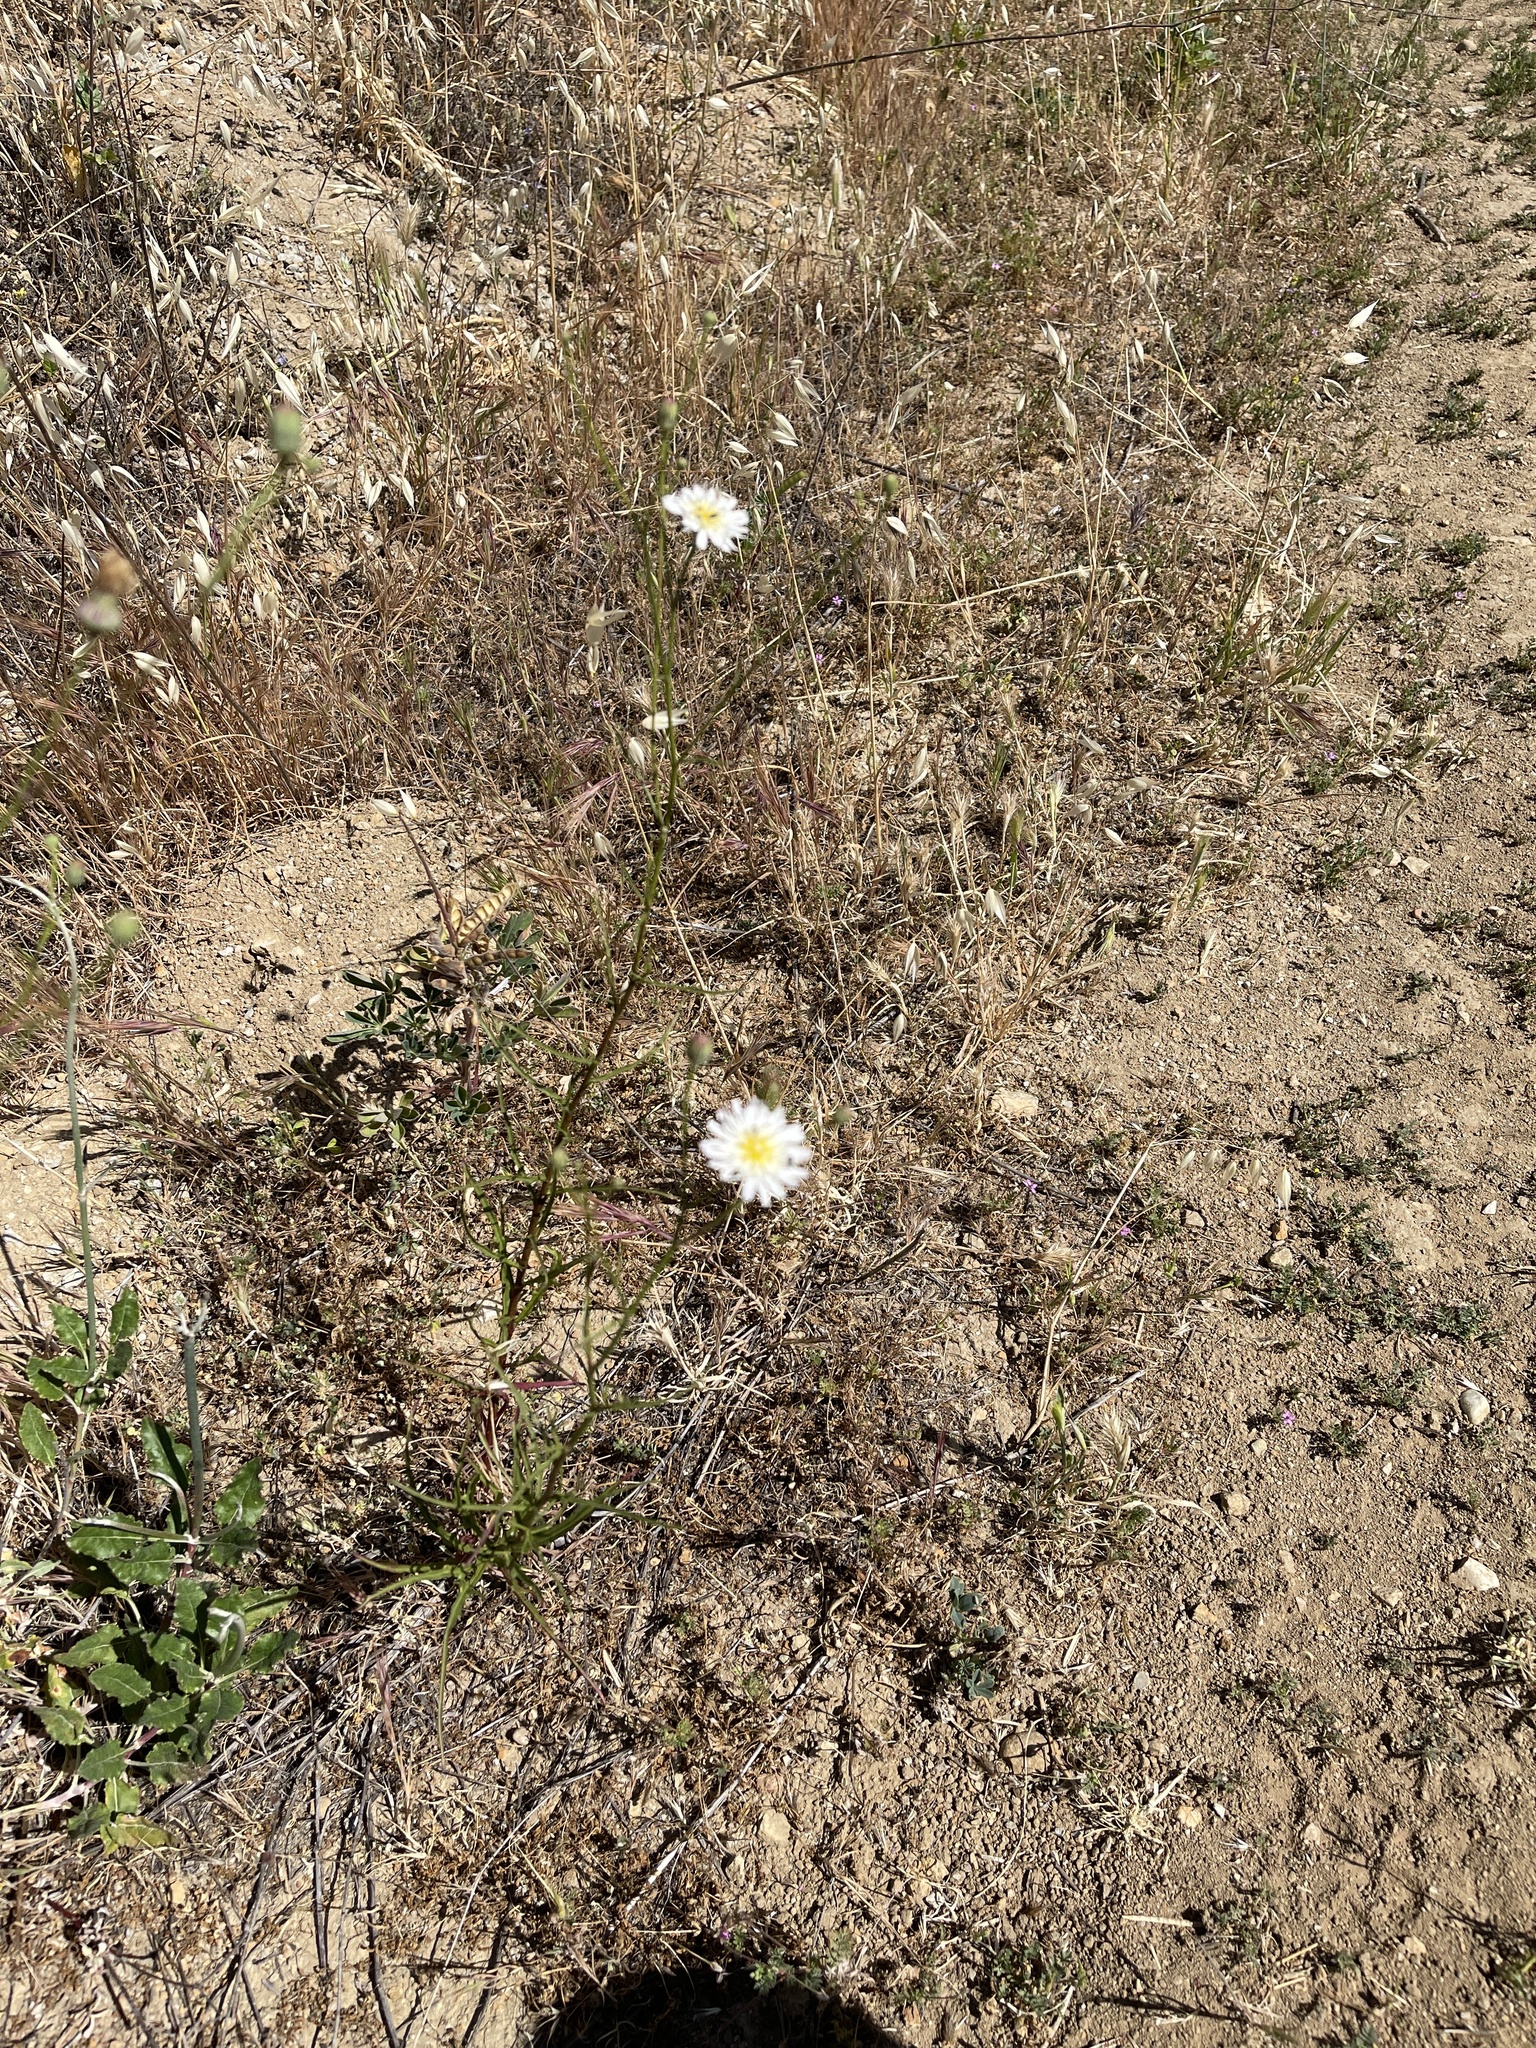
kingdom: Plantae
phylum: Tracheophyta
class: Magnoliopsida
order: Asterales
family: Asteraceae
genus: Malacothrix
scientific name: Malacothrix saxatilis
